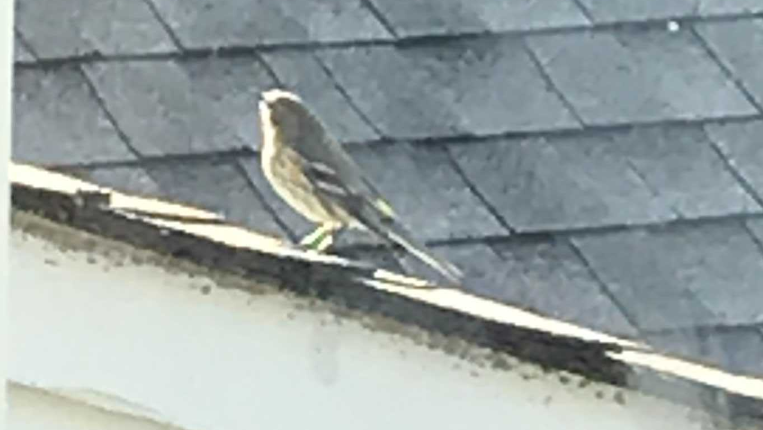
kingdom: Animalia
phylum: Chordata
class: Aves
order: Passeriformes
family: Parulidae
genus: Setophaga
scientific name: Setophaga coronata
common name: Myrtle warbler
